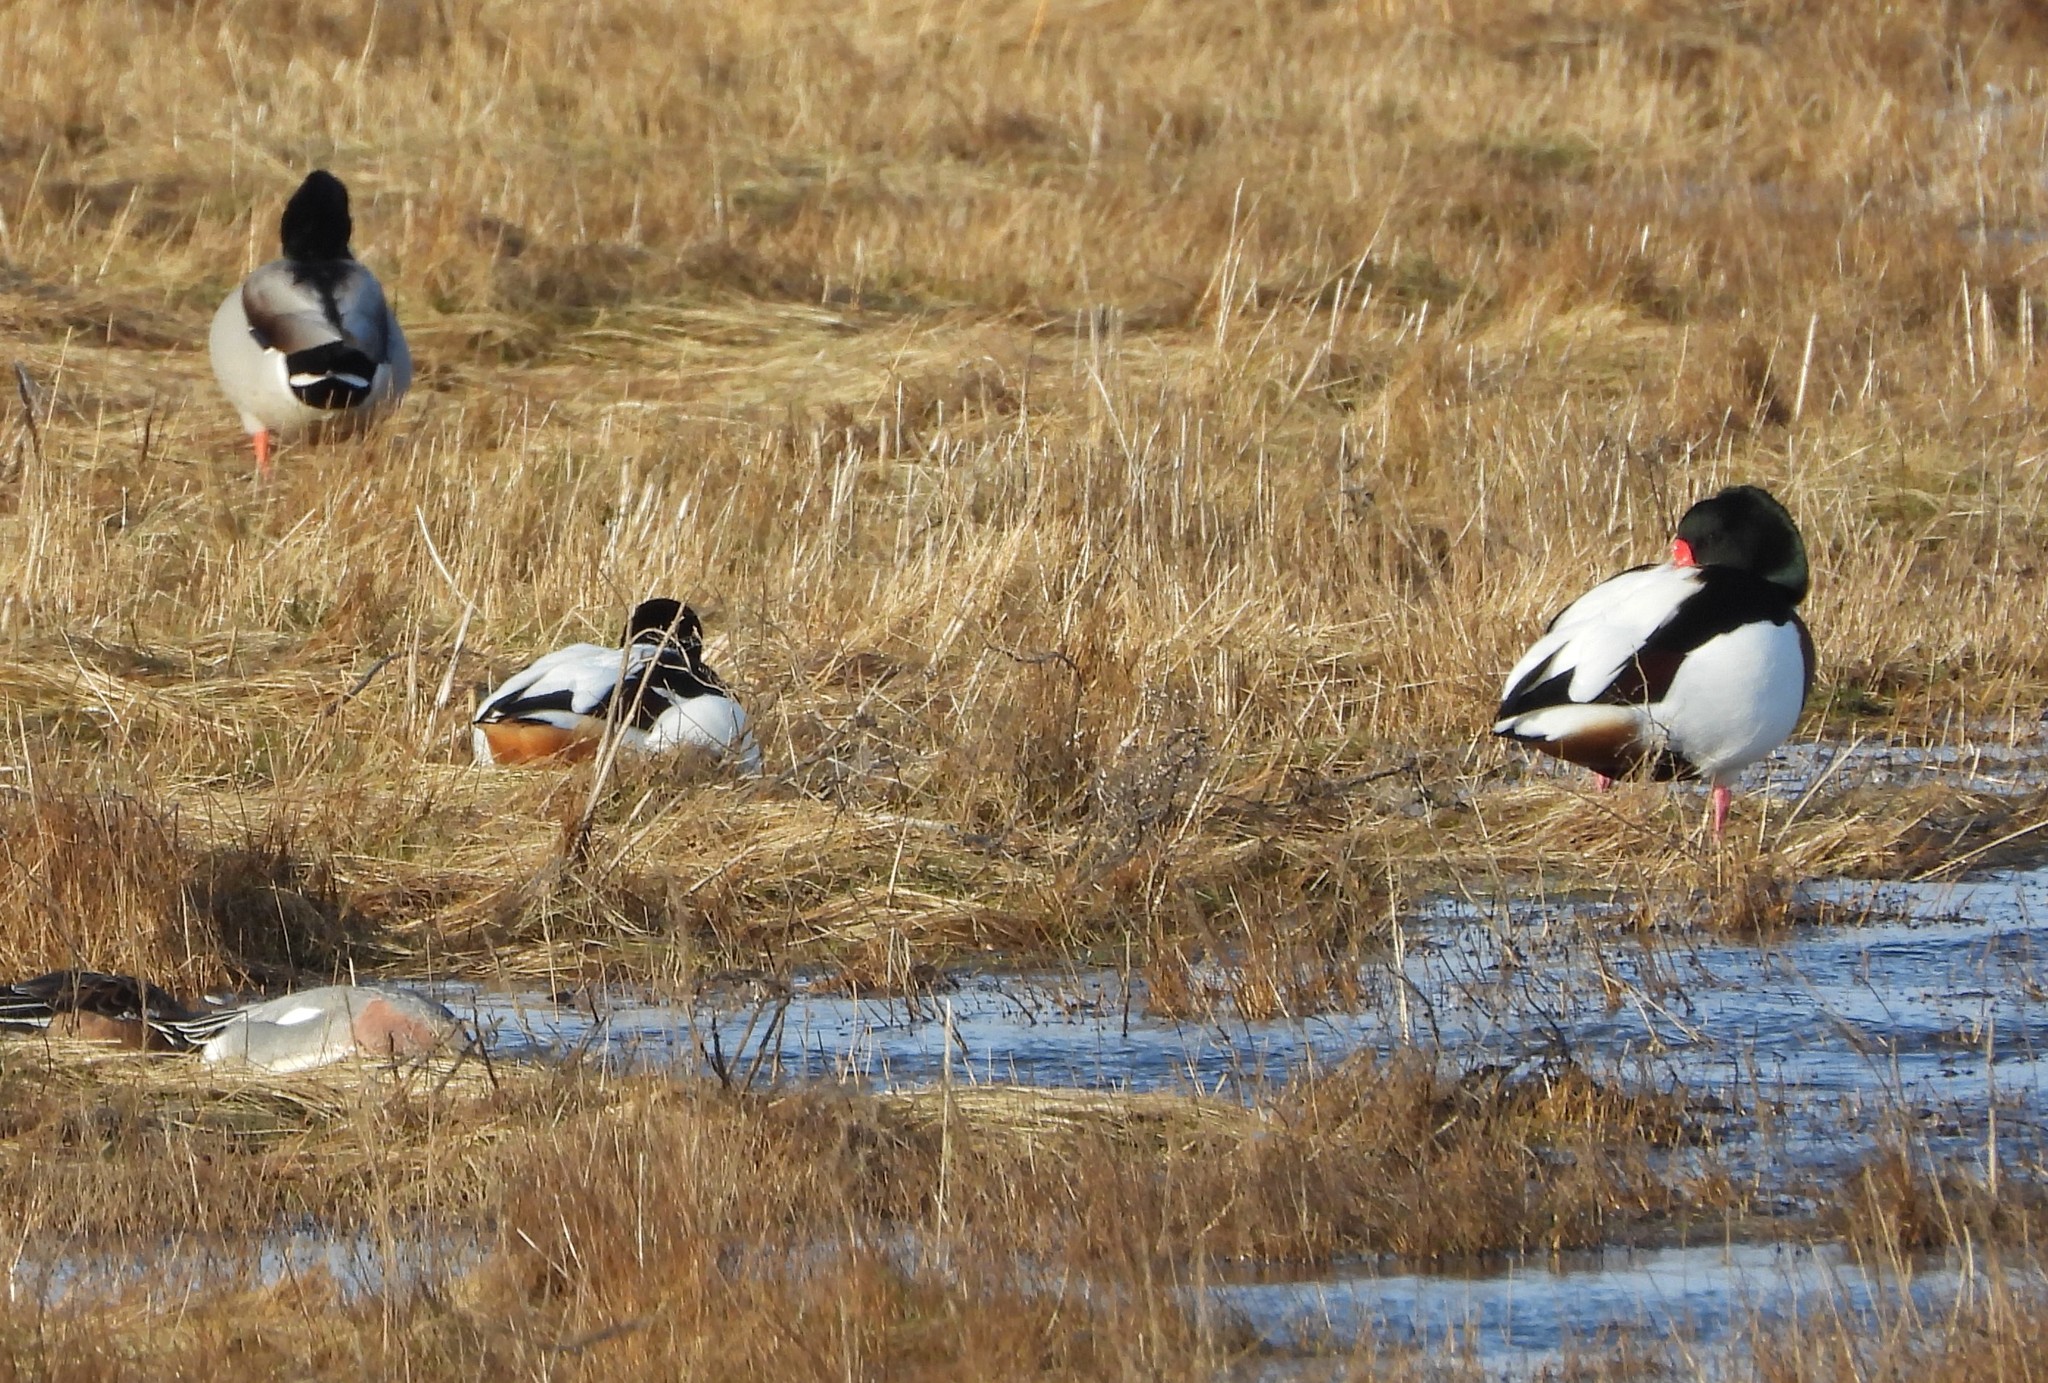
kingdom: Animalia
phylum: Chordata
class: Aves
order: Anseriformes
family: Anatidae
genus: Tadorna
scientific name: Tadorna tadorna
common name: Common shelduck
